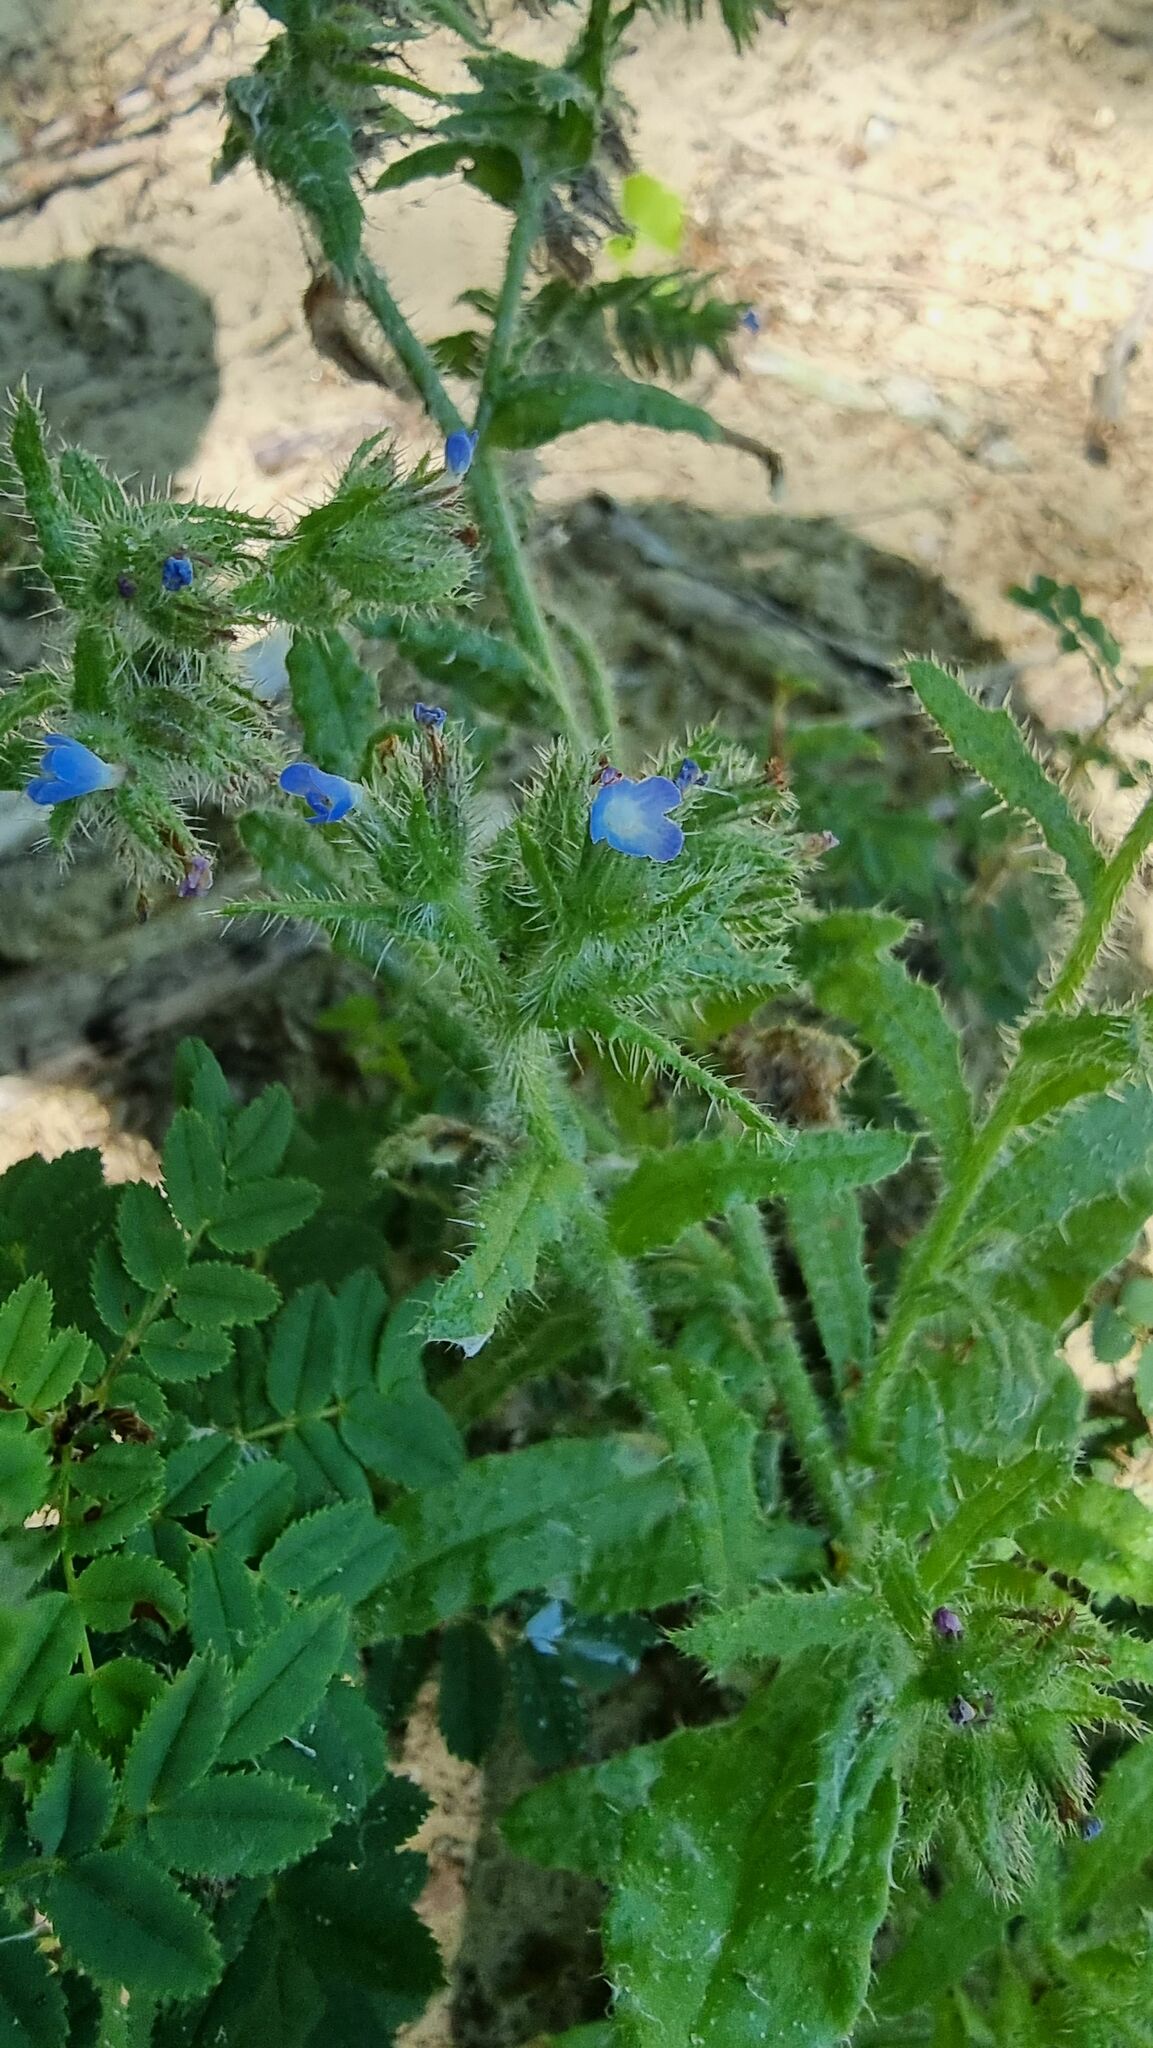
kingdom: Plantae
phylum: Tracheophyta
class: Magnoliopsida
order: Boraginales
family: Boraginaceae
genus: Lycopsis
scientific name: Lycopsis arvensis
